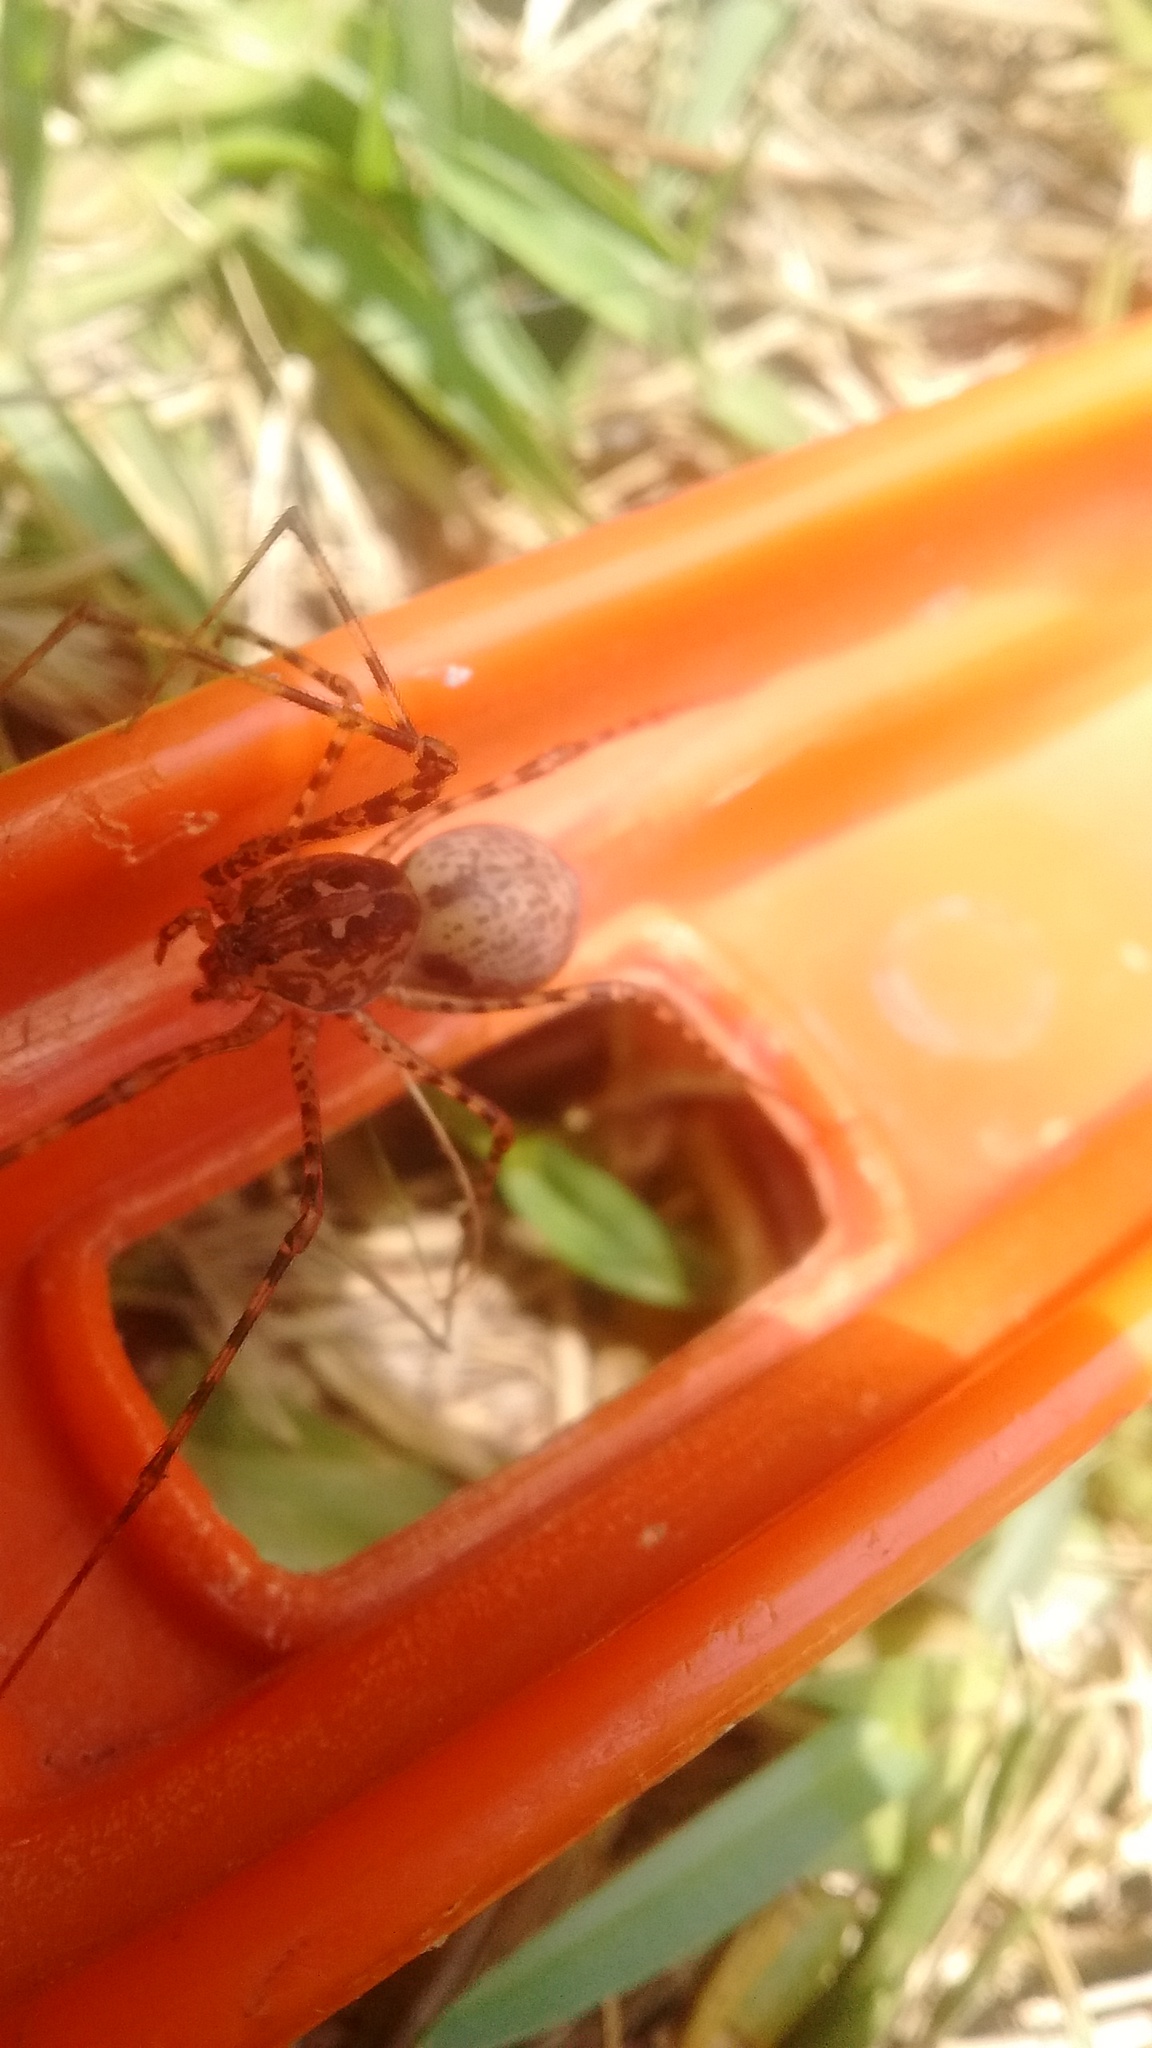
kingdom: Animalia
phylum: Arthropoda
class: Arachnida
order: Araneae
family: Scytodidae
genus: Scytodes
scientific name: Scytodes globula
